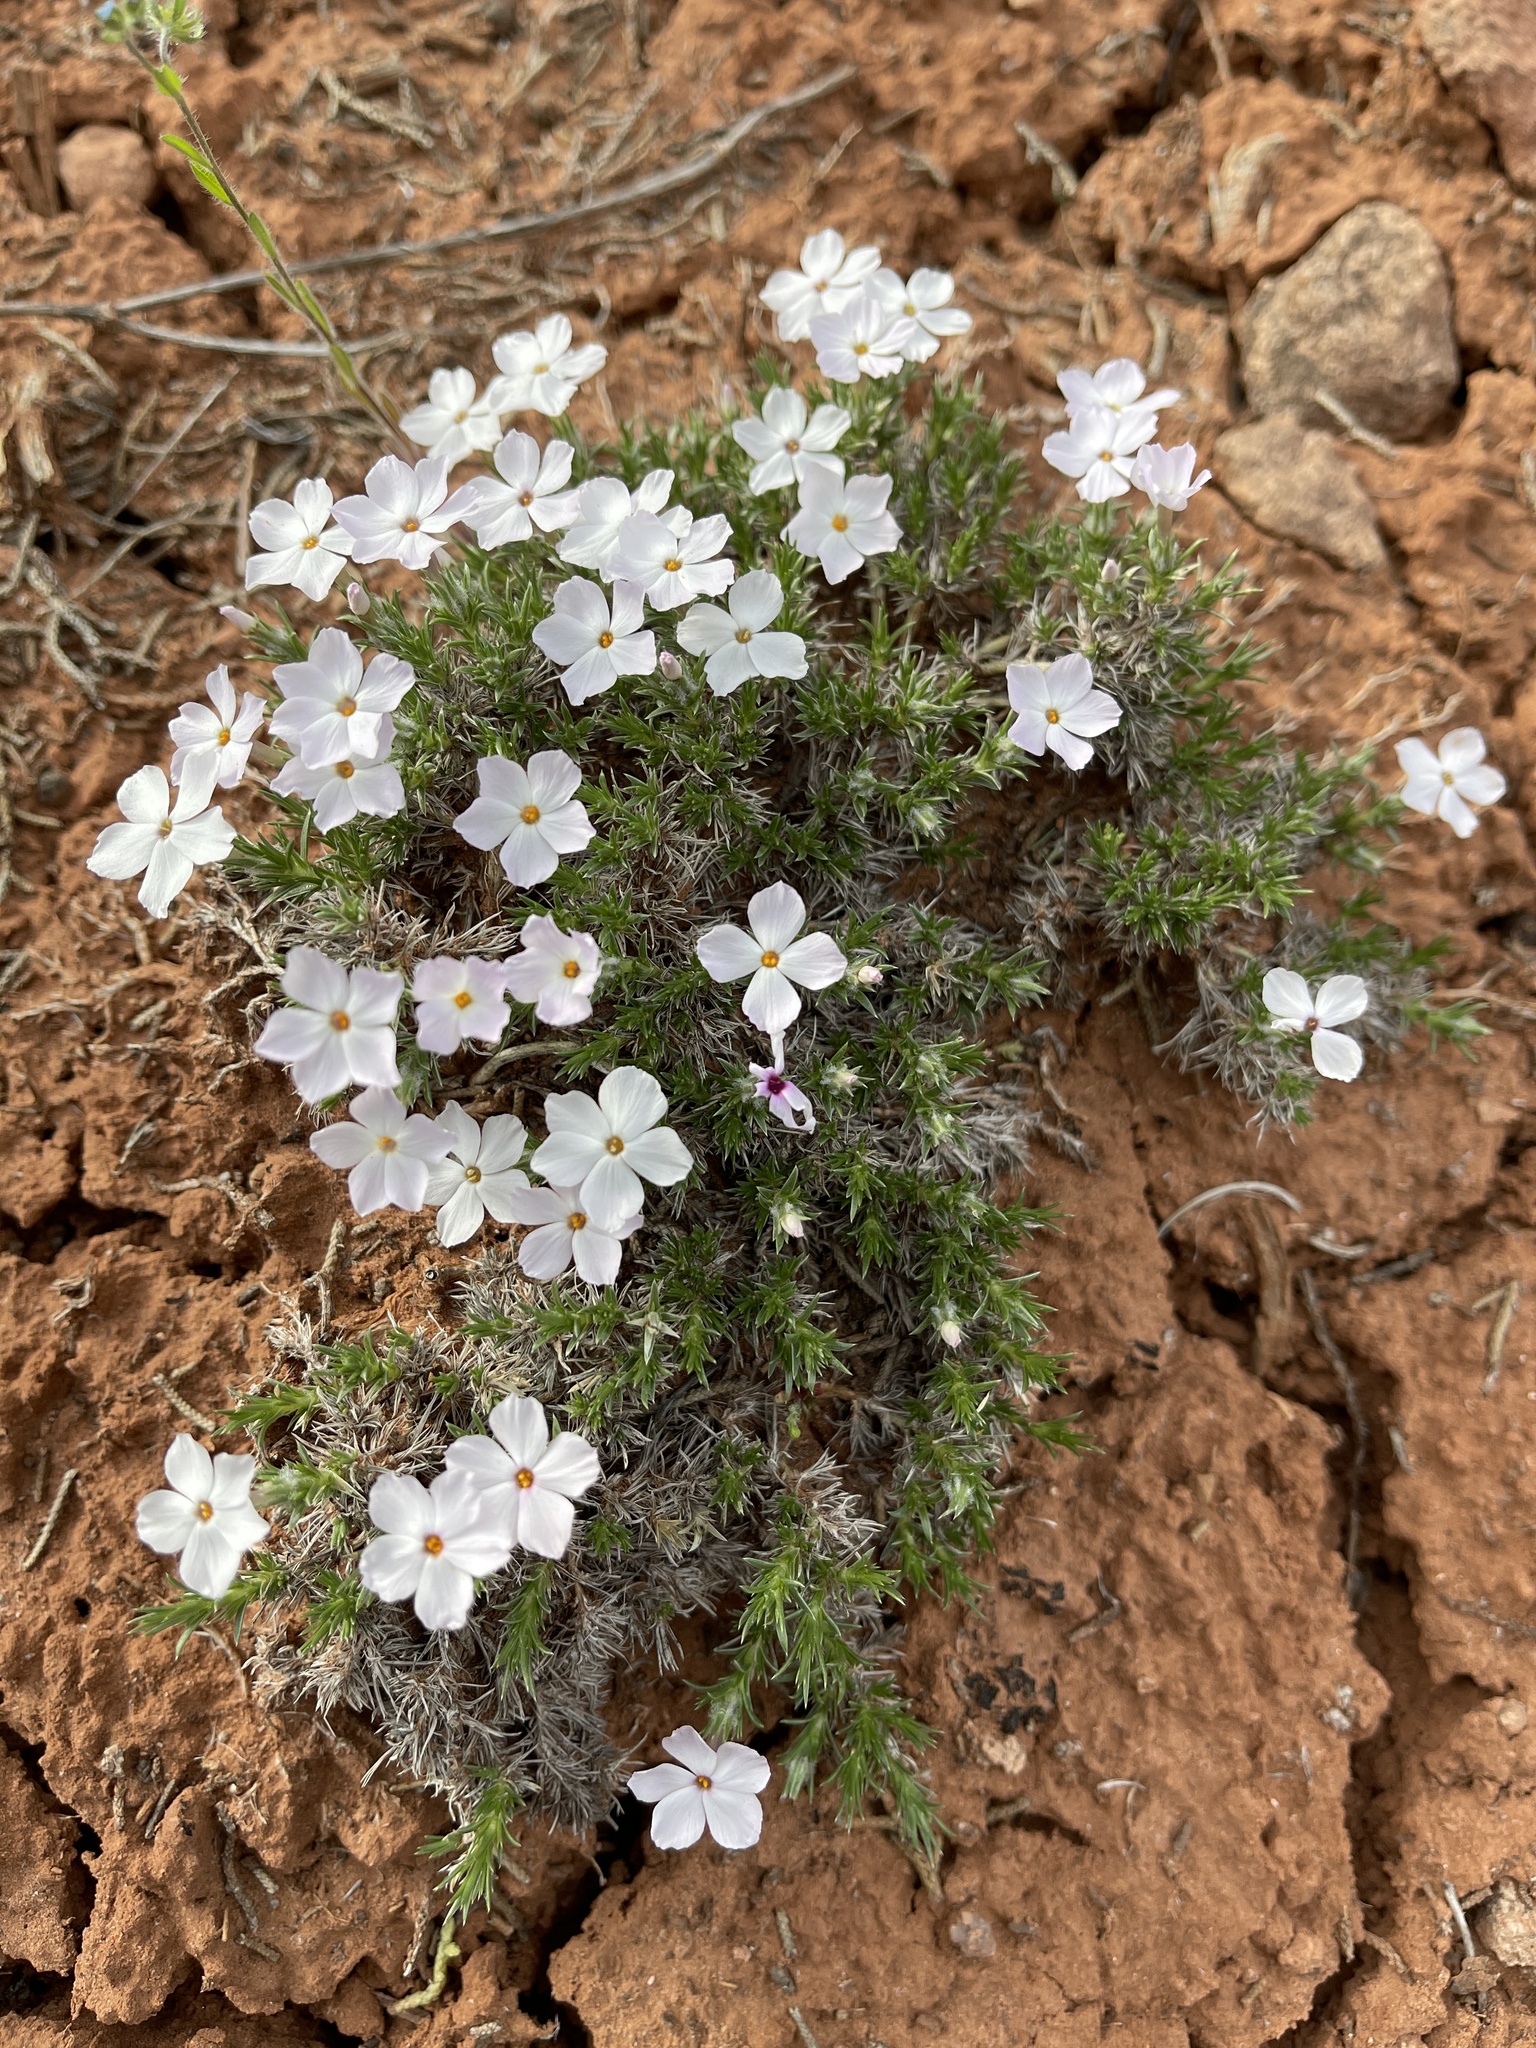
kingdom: Plantae
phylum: Tracheophyta
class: Magnoliopsida
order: Ericales
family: Polemoniaceae
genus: Phlox
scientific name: Phlox hoodii
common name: Moss phlox
